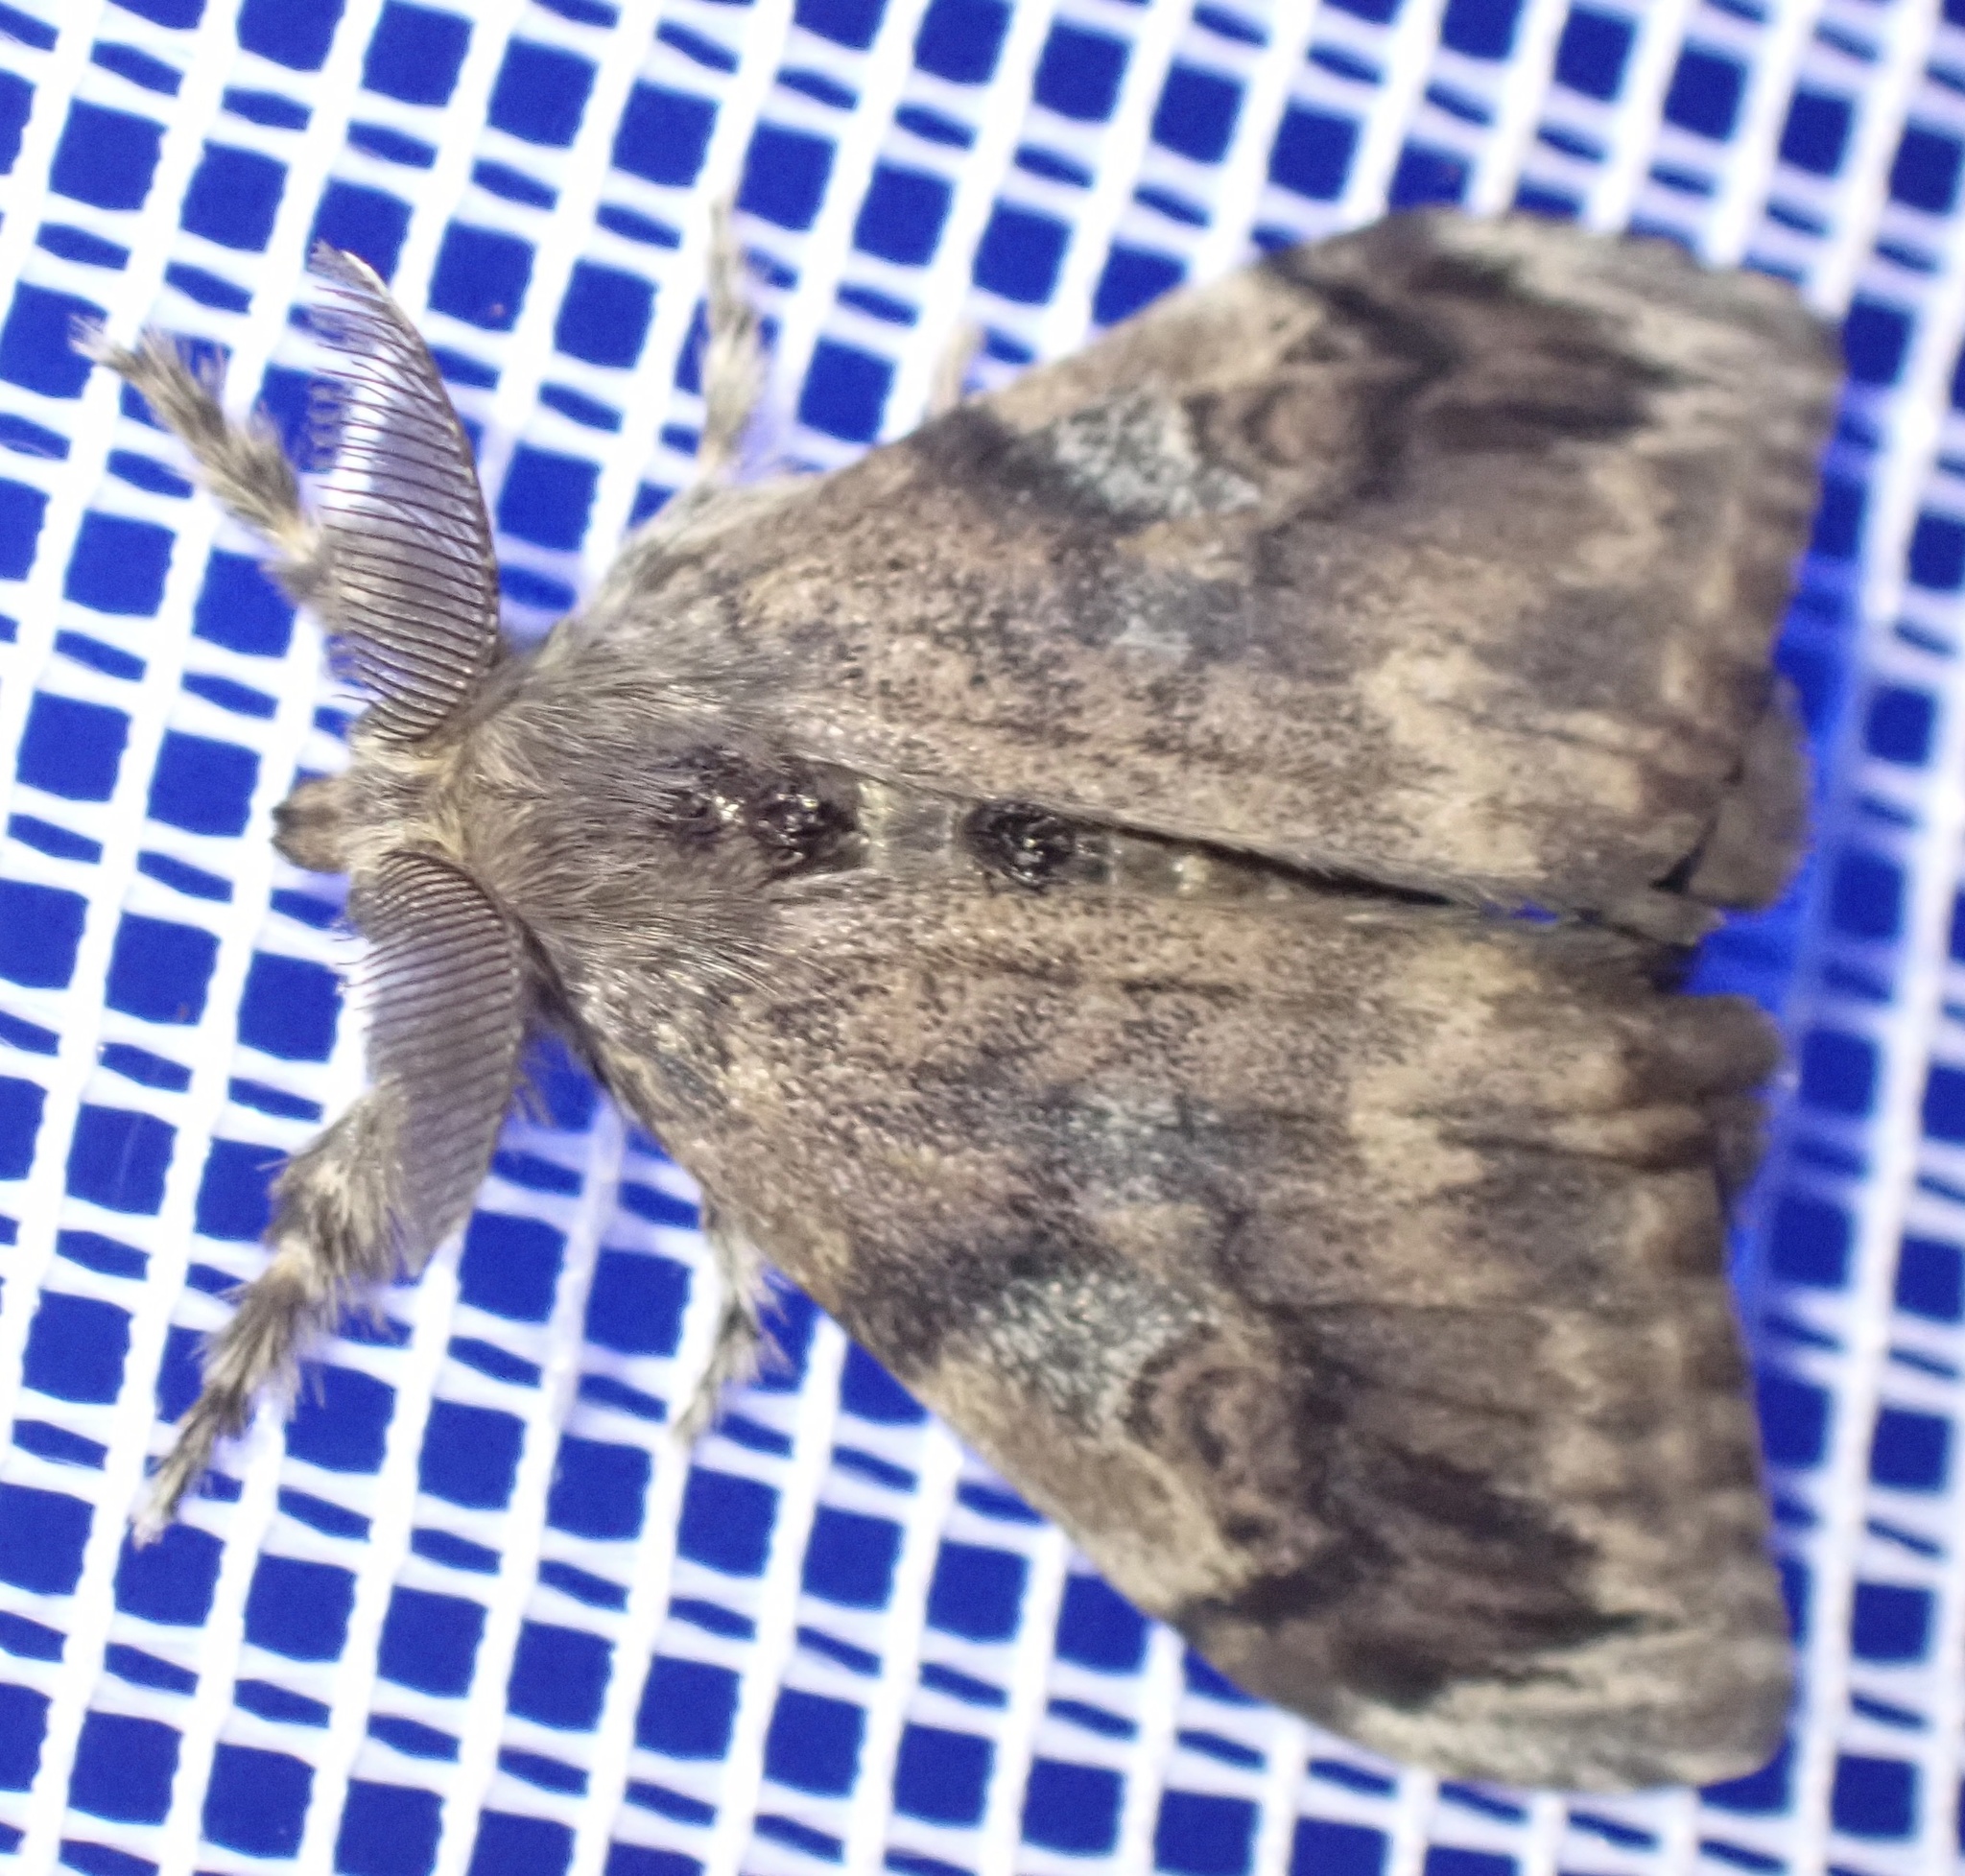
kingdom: Animalia
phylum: Arthropoda
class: Insecta
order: Lepidoptera
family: Erebidae
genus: Orgyia
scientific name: Orgyia australis
